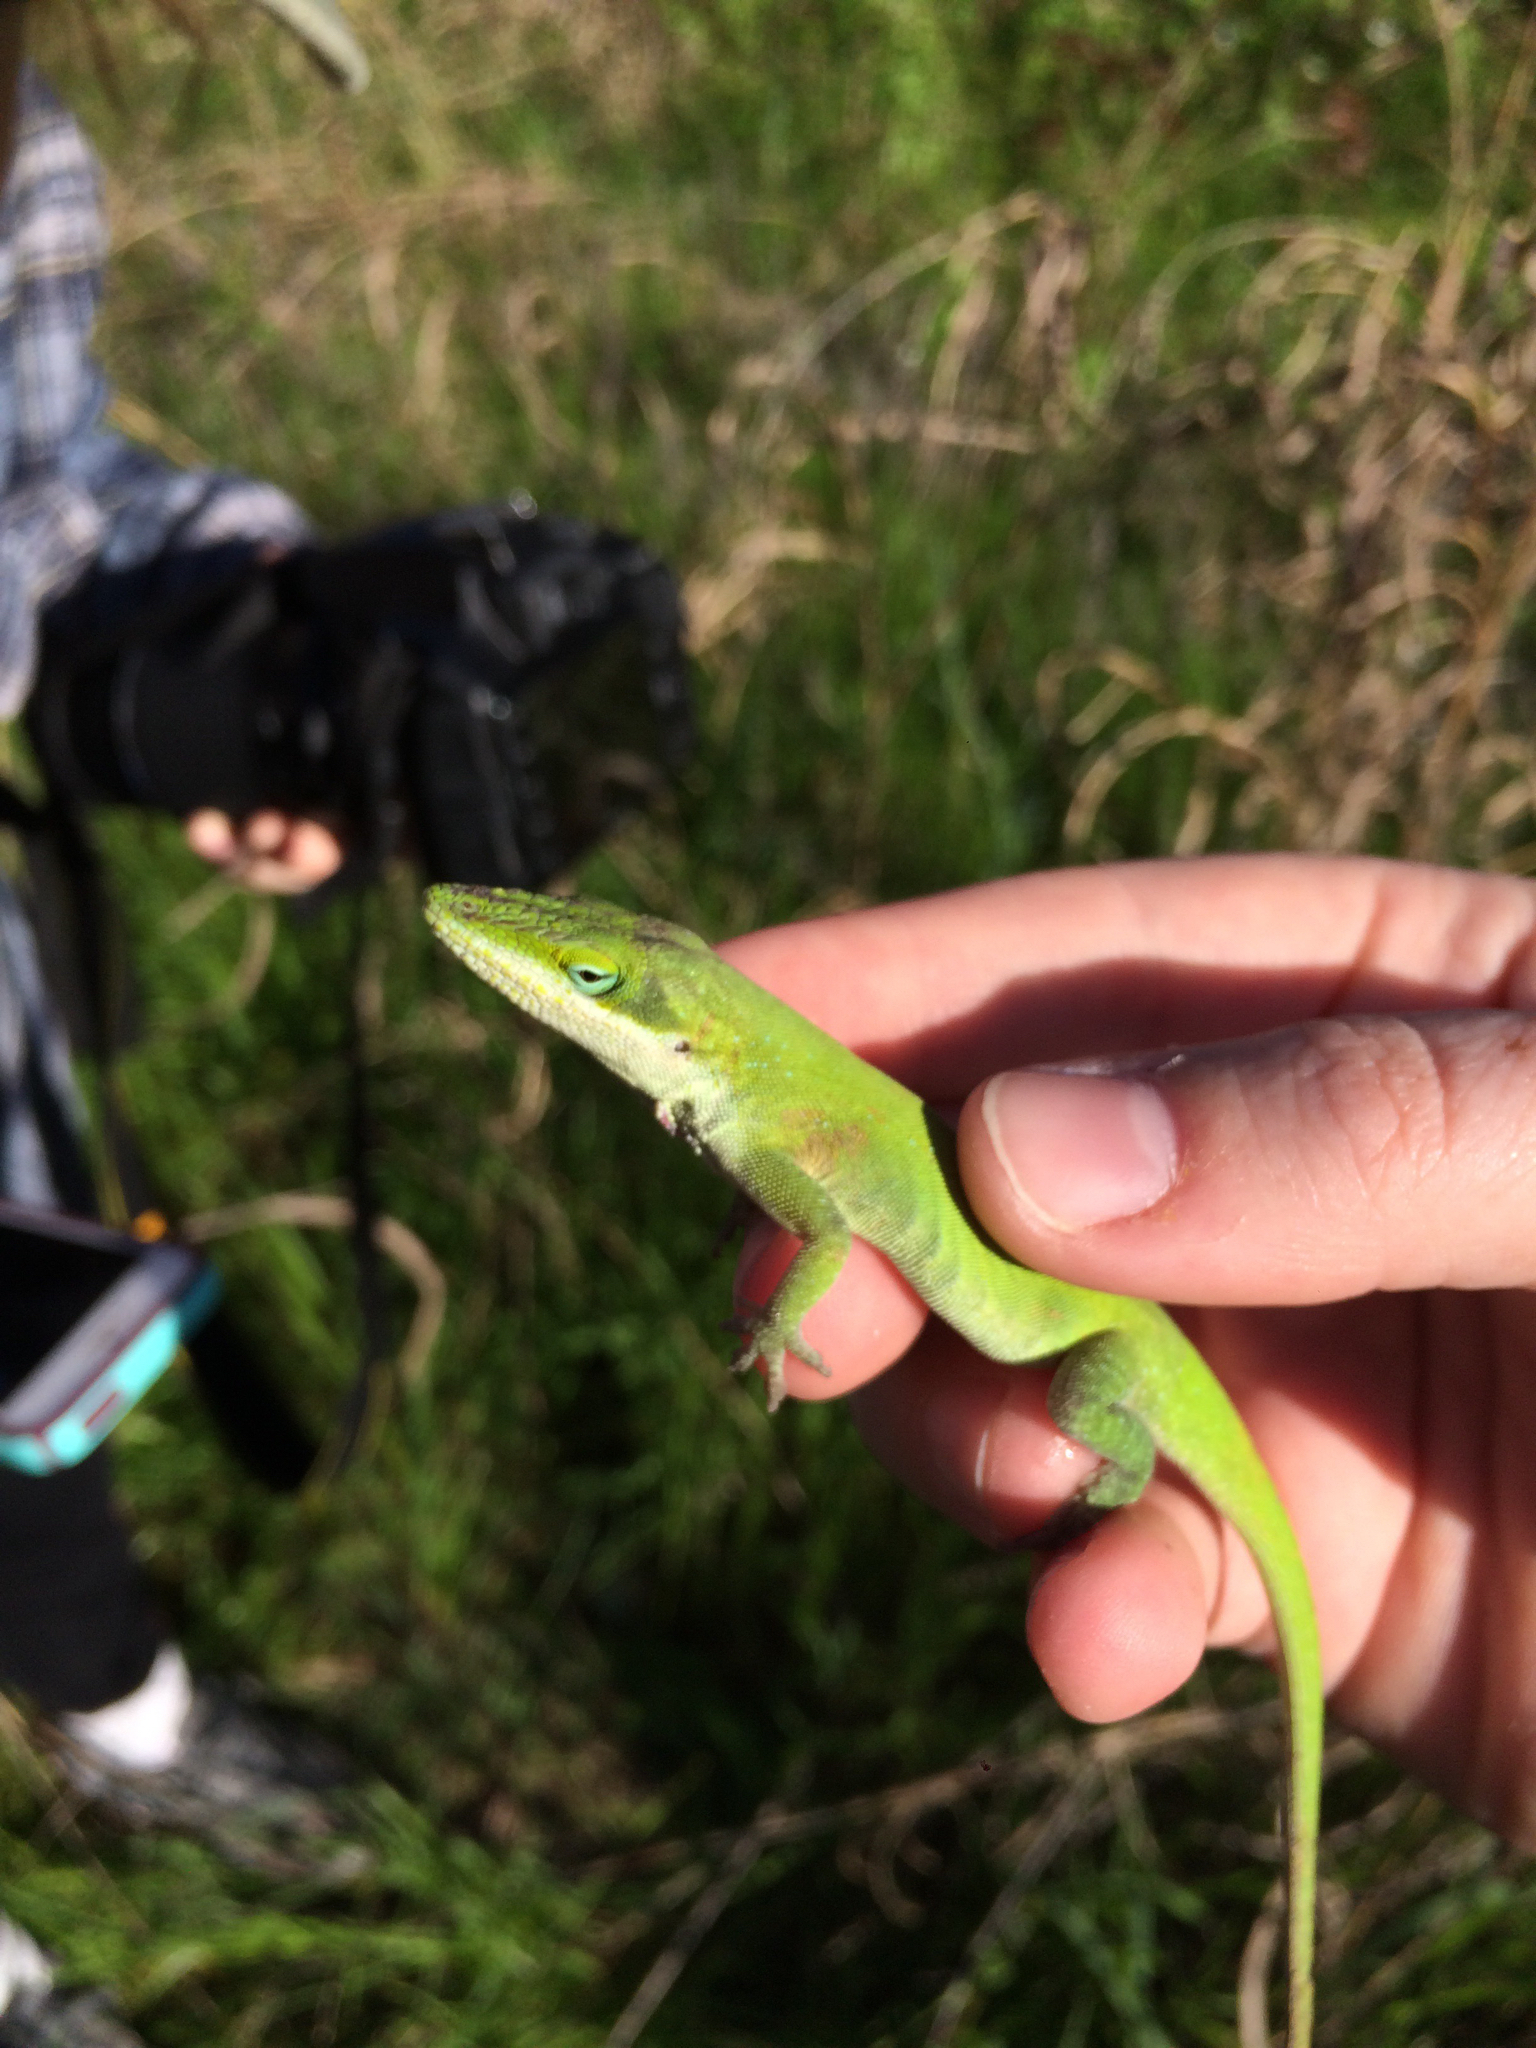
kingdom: Animalia
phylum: Chordata
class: Squamata
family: Dactyloidae
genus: Anolis
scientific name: Anolis carolinensis
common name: Green anole
